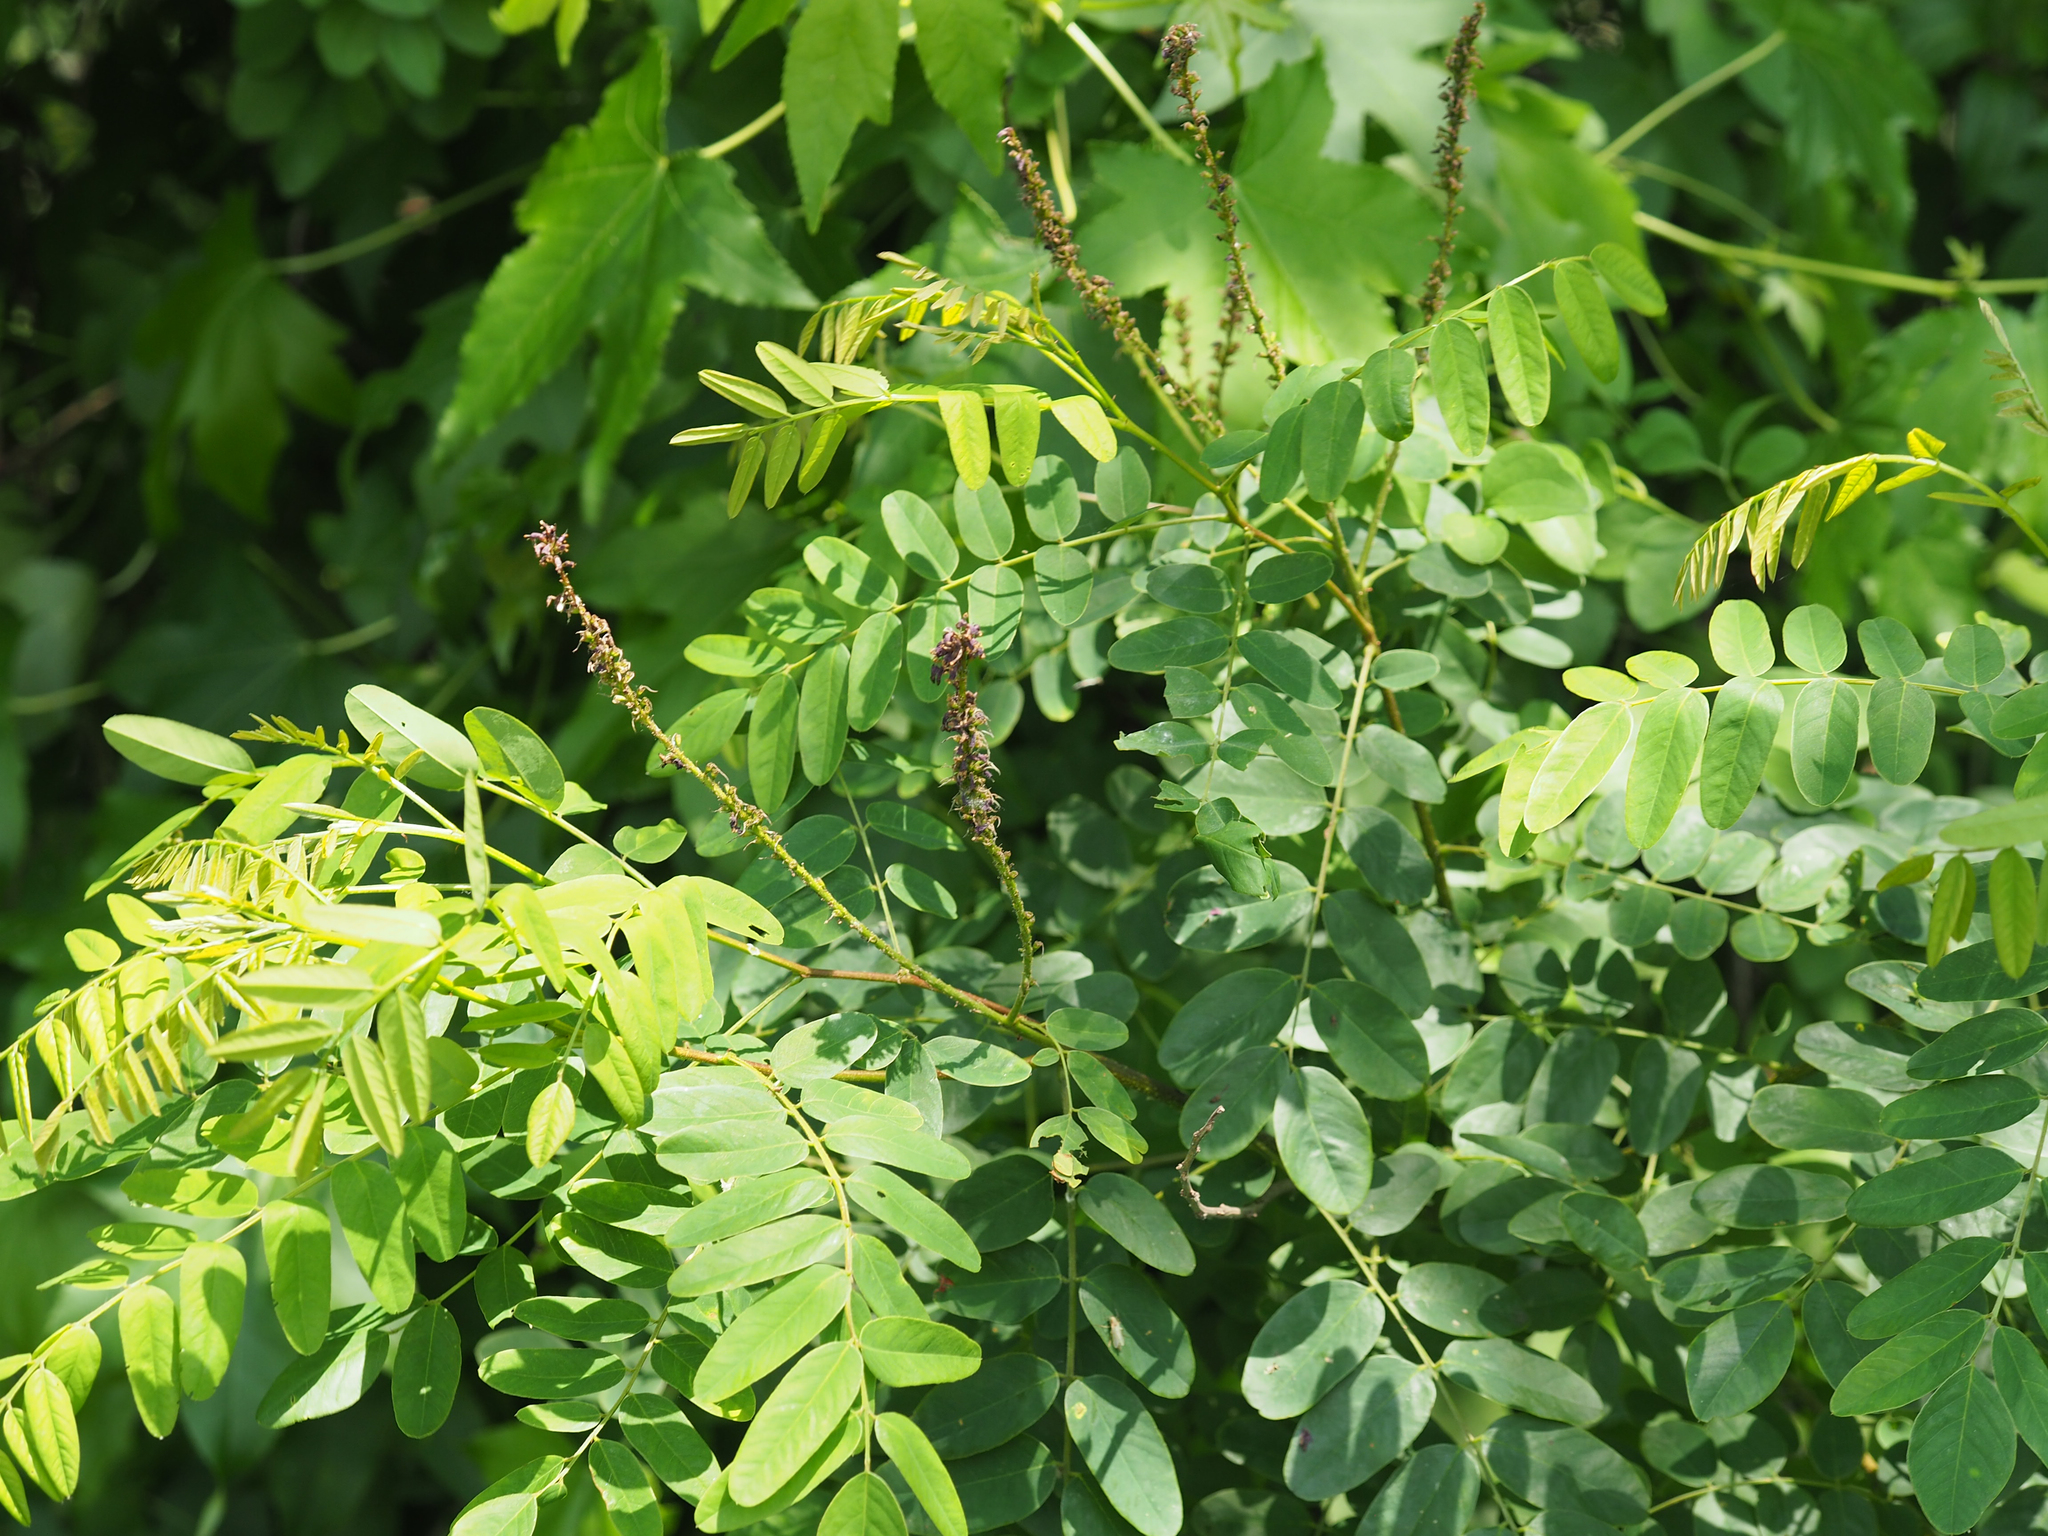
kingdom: Plantae
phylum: Tracheophyta
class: Magnoliopsida
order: Fabales
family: Fabaceae
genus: Amorpha
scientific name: Amorpha fruticosa
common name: False indigo
